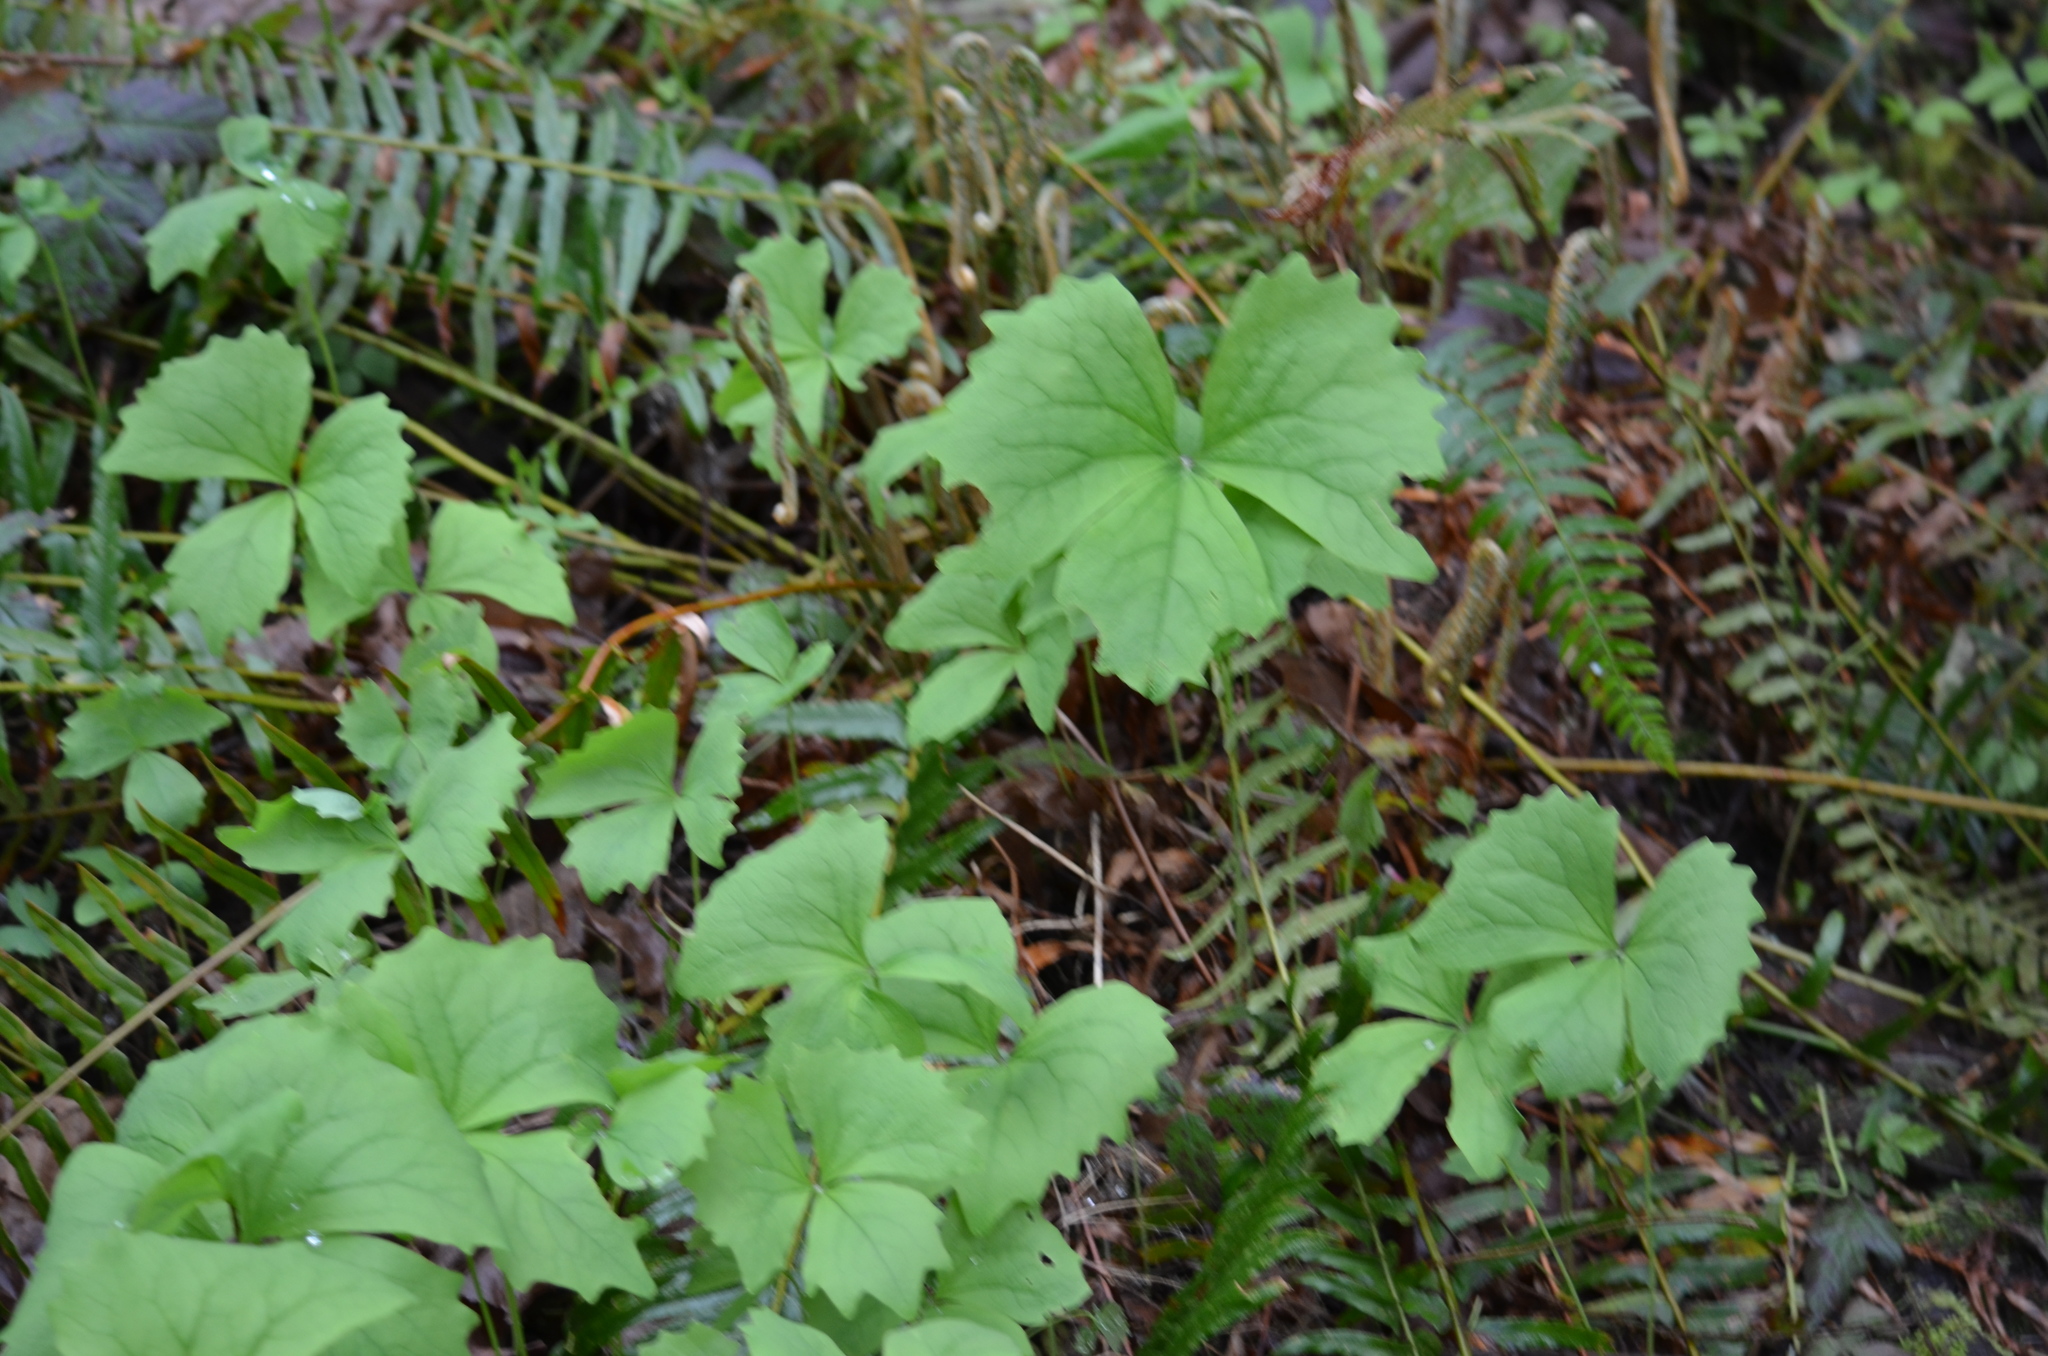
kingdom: Plantae
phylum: Tracheophyta
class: Magnoliopsida
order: Ranunculales
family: Berberidaceae
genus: Achlys
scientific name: Achlys triphylla
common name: Vanilla-leaf
